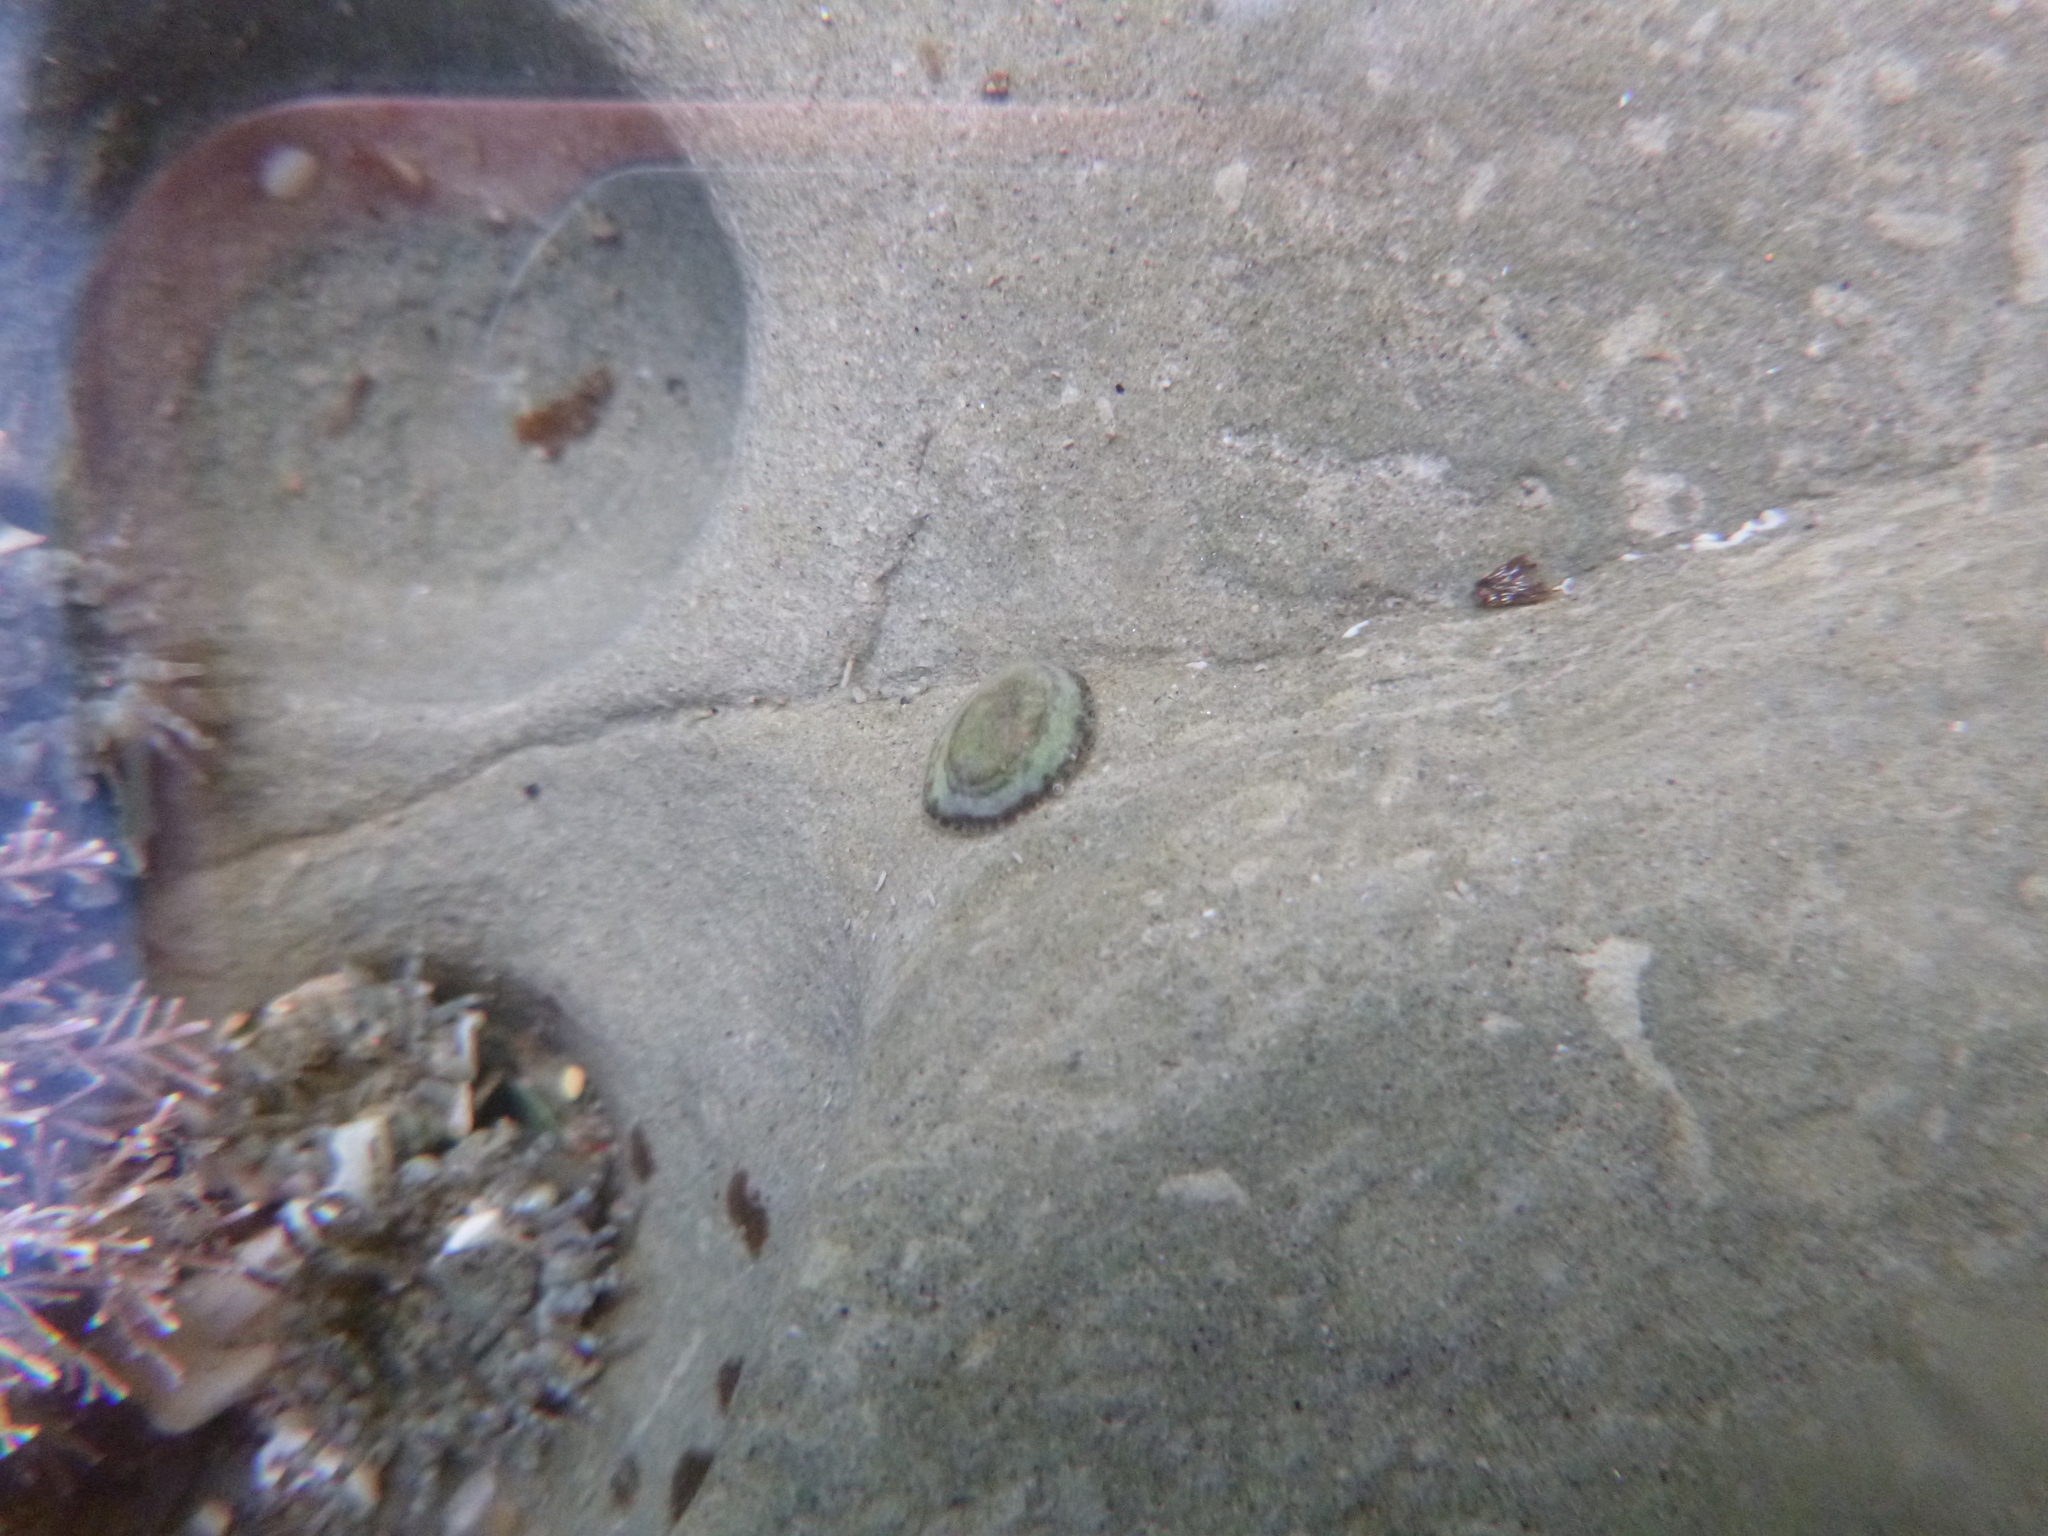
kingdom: Animalia
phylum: Mollusca
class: Gastropoda
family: Lottiidae
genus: Notoacmea
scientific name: Notoacmea
